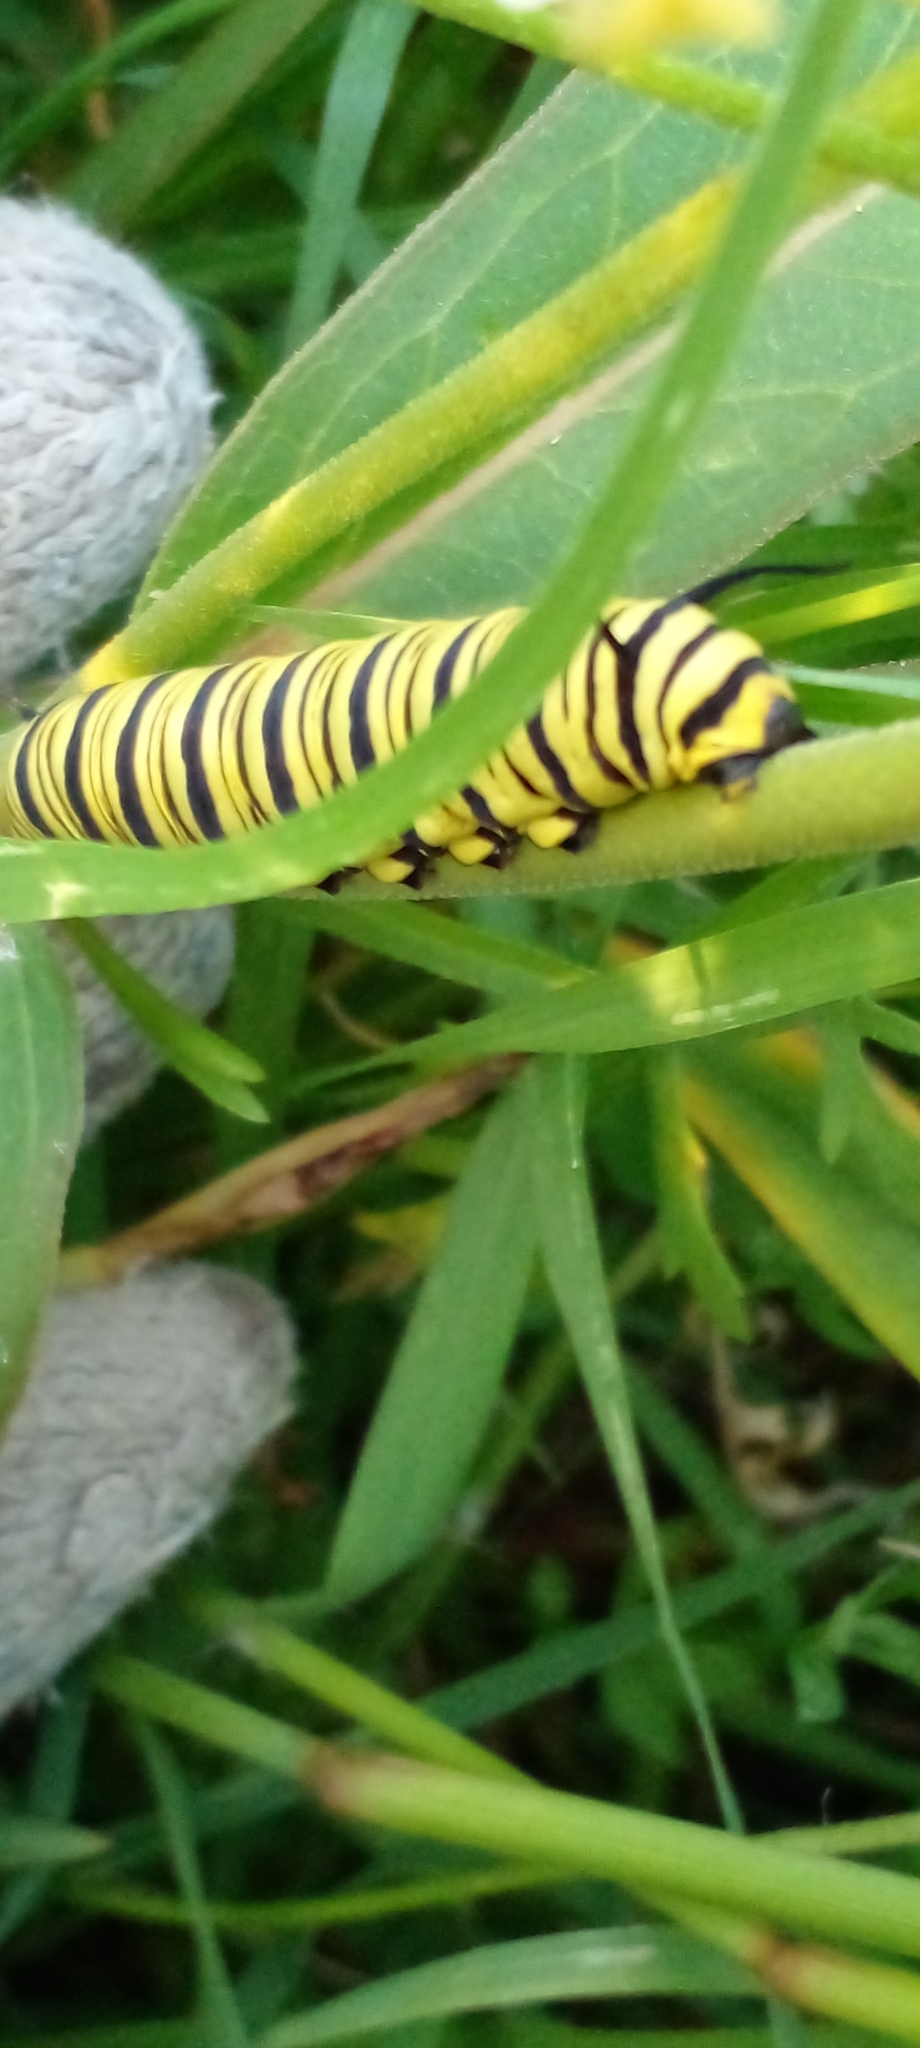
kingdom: Animalia
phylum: Arthropoda
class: Insecta
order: Lepidoptera
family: Nymphalidae
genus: Danaus
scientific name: Danaus erippus
